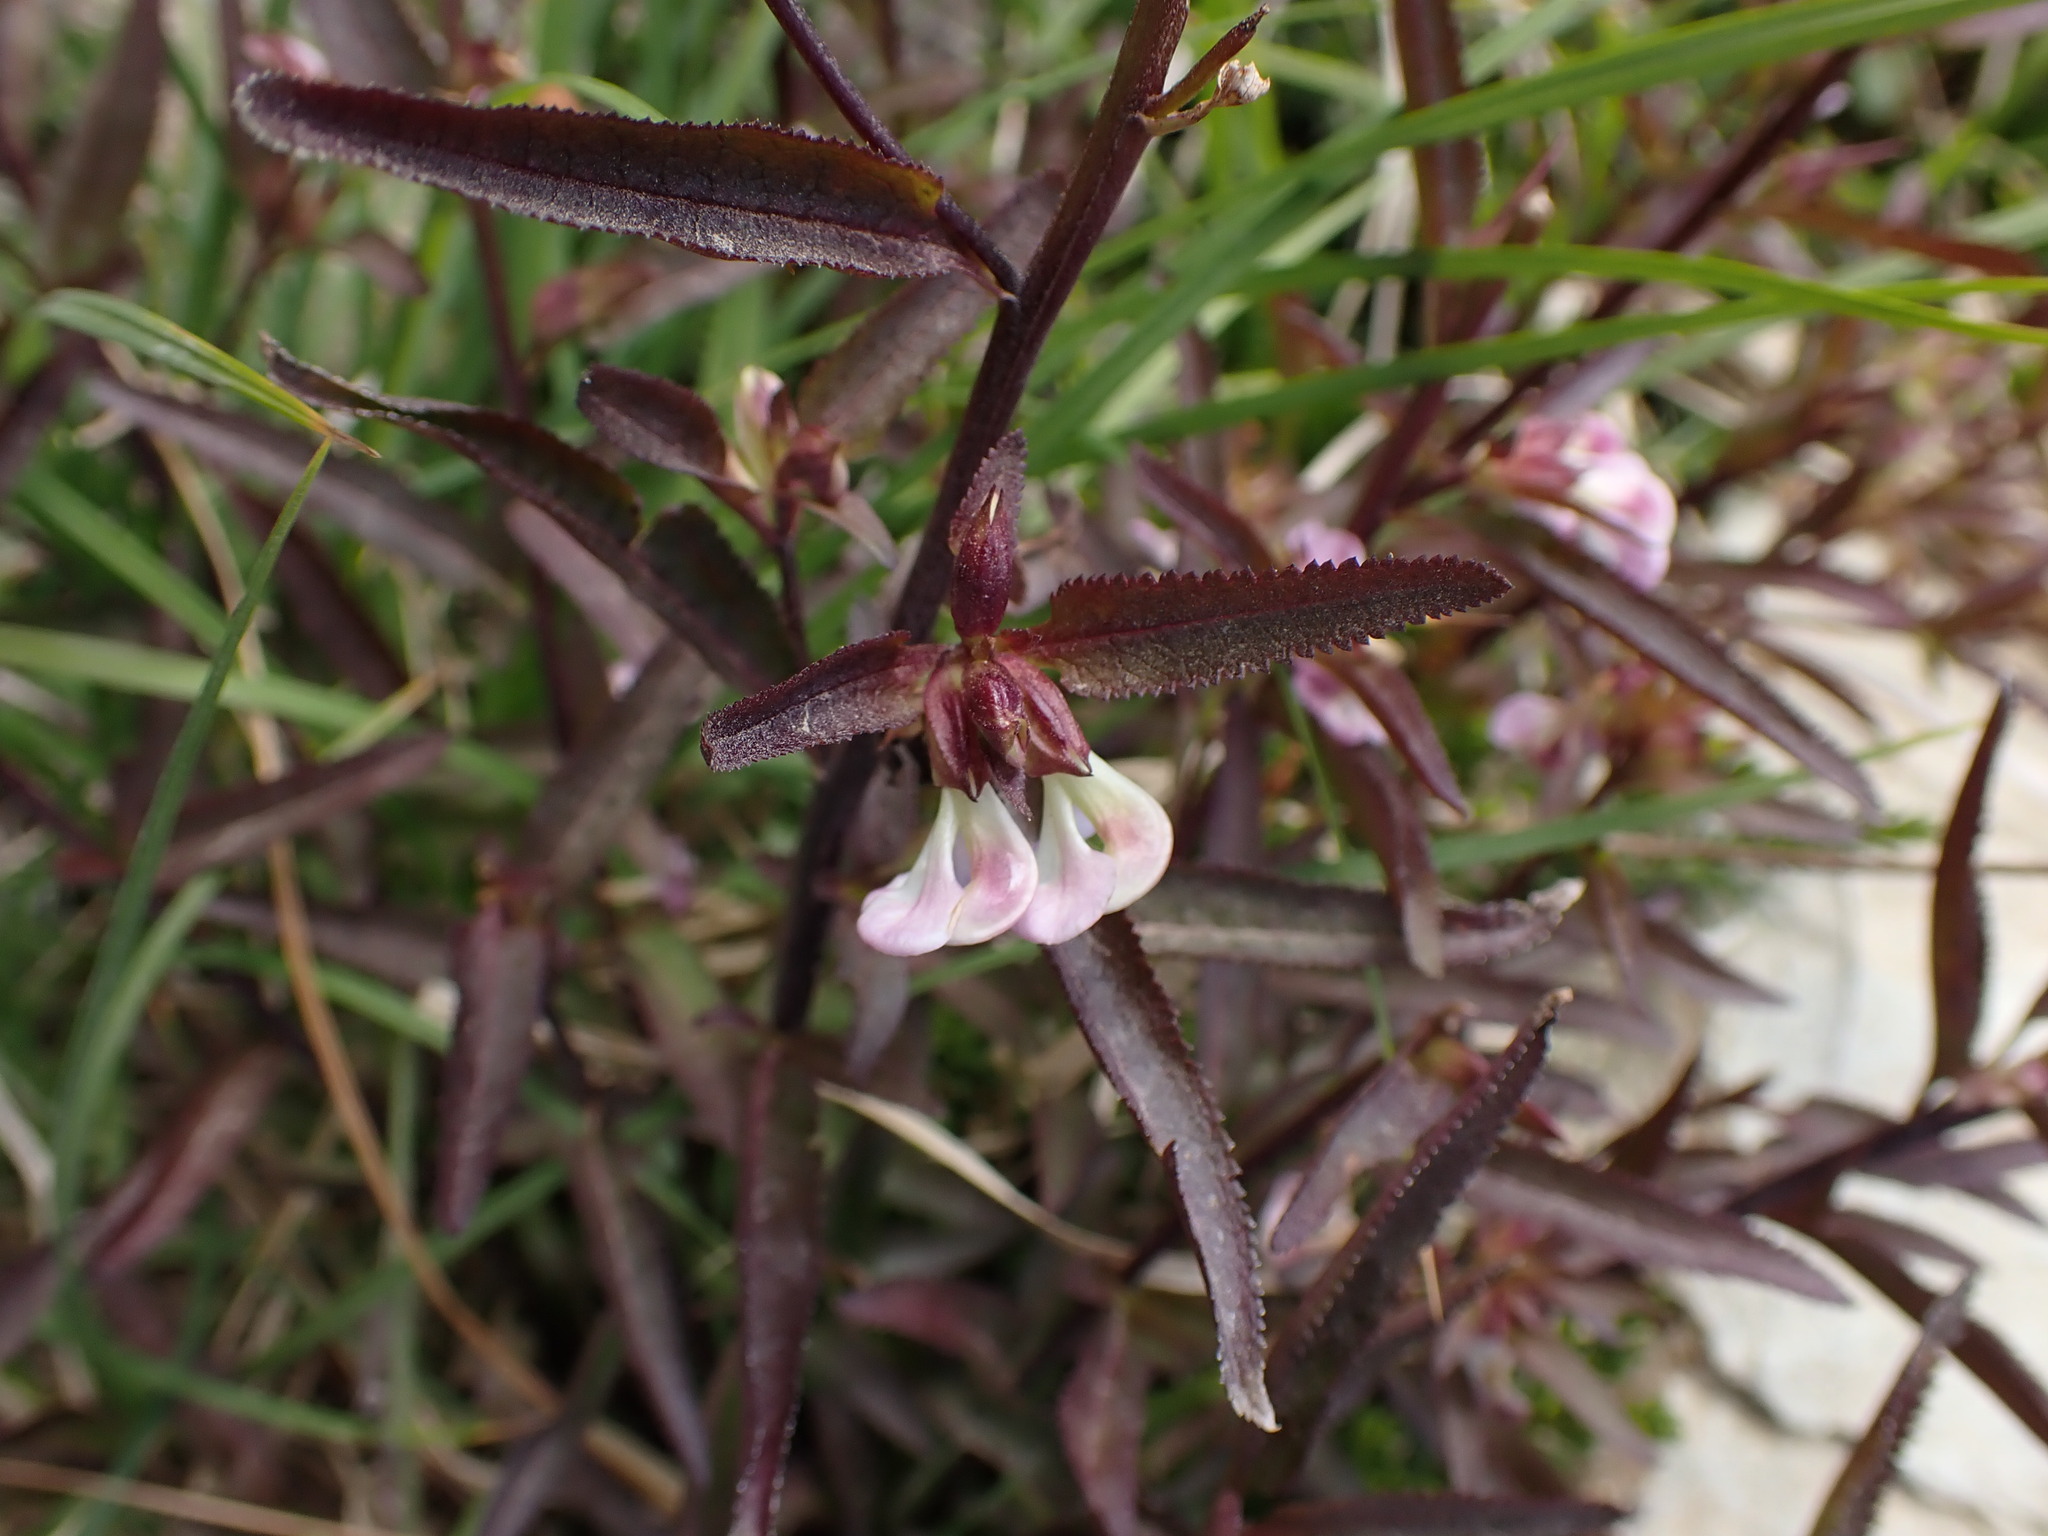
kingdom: Plantae
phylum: Tracheophyta
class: Magnoliopsida
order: Lamiales
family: Orobanchaceae
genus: Pedicularis
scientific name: Pedicularis racemosa
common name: Leafy lousewort
